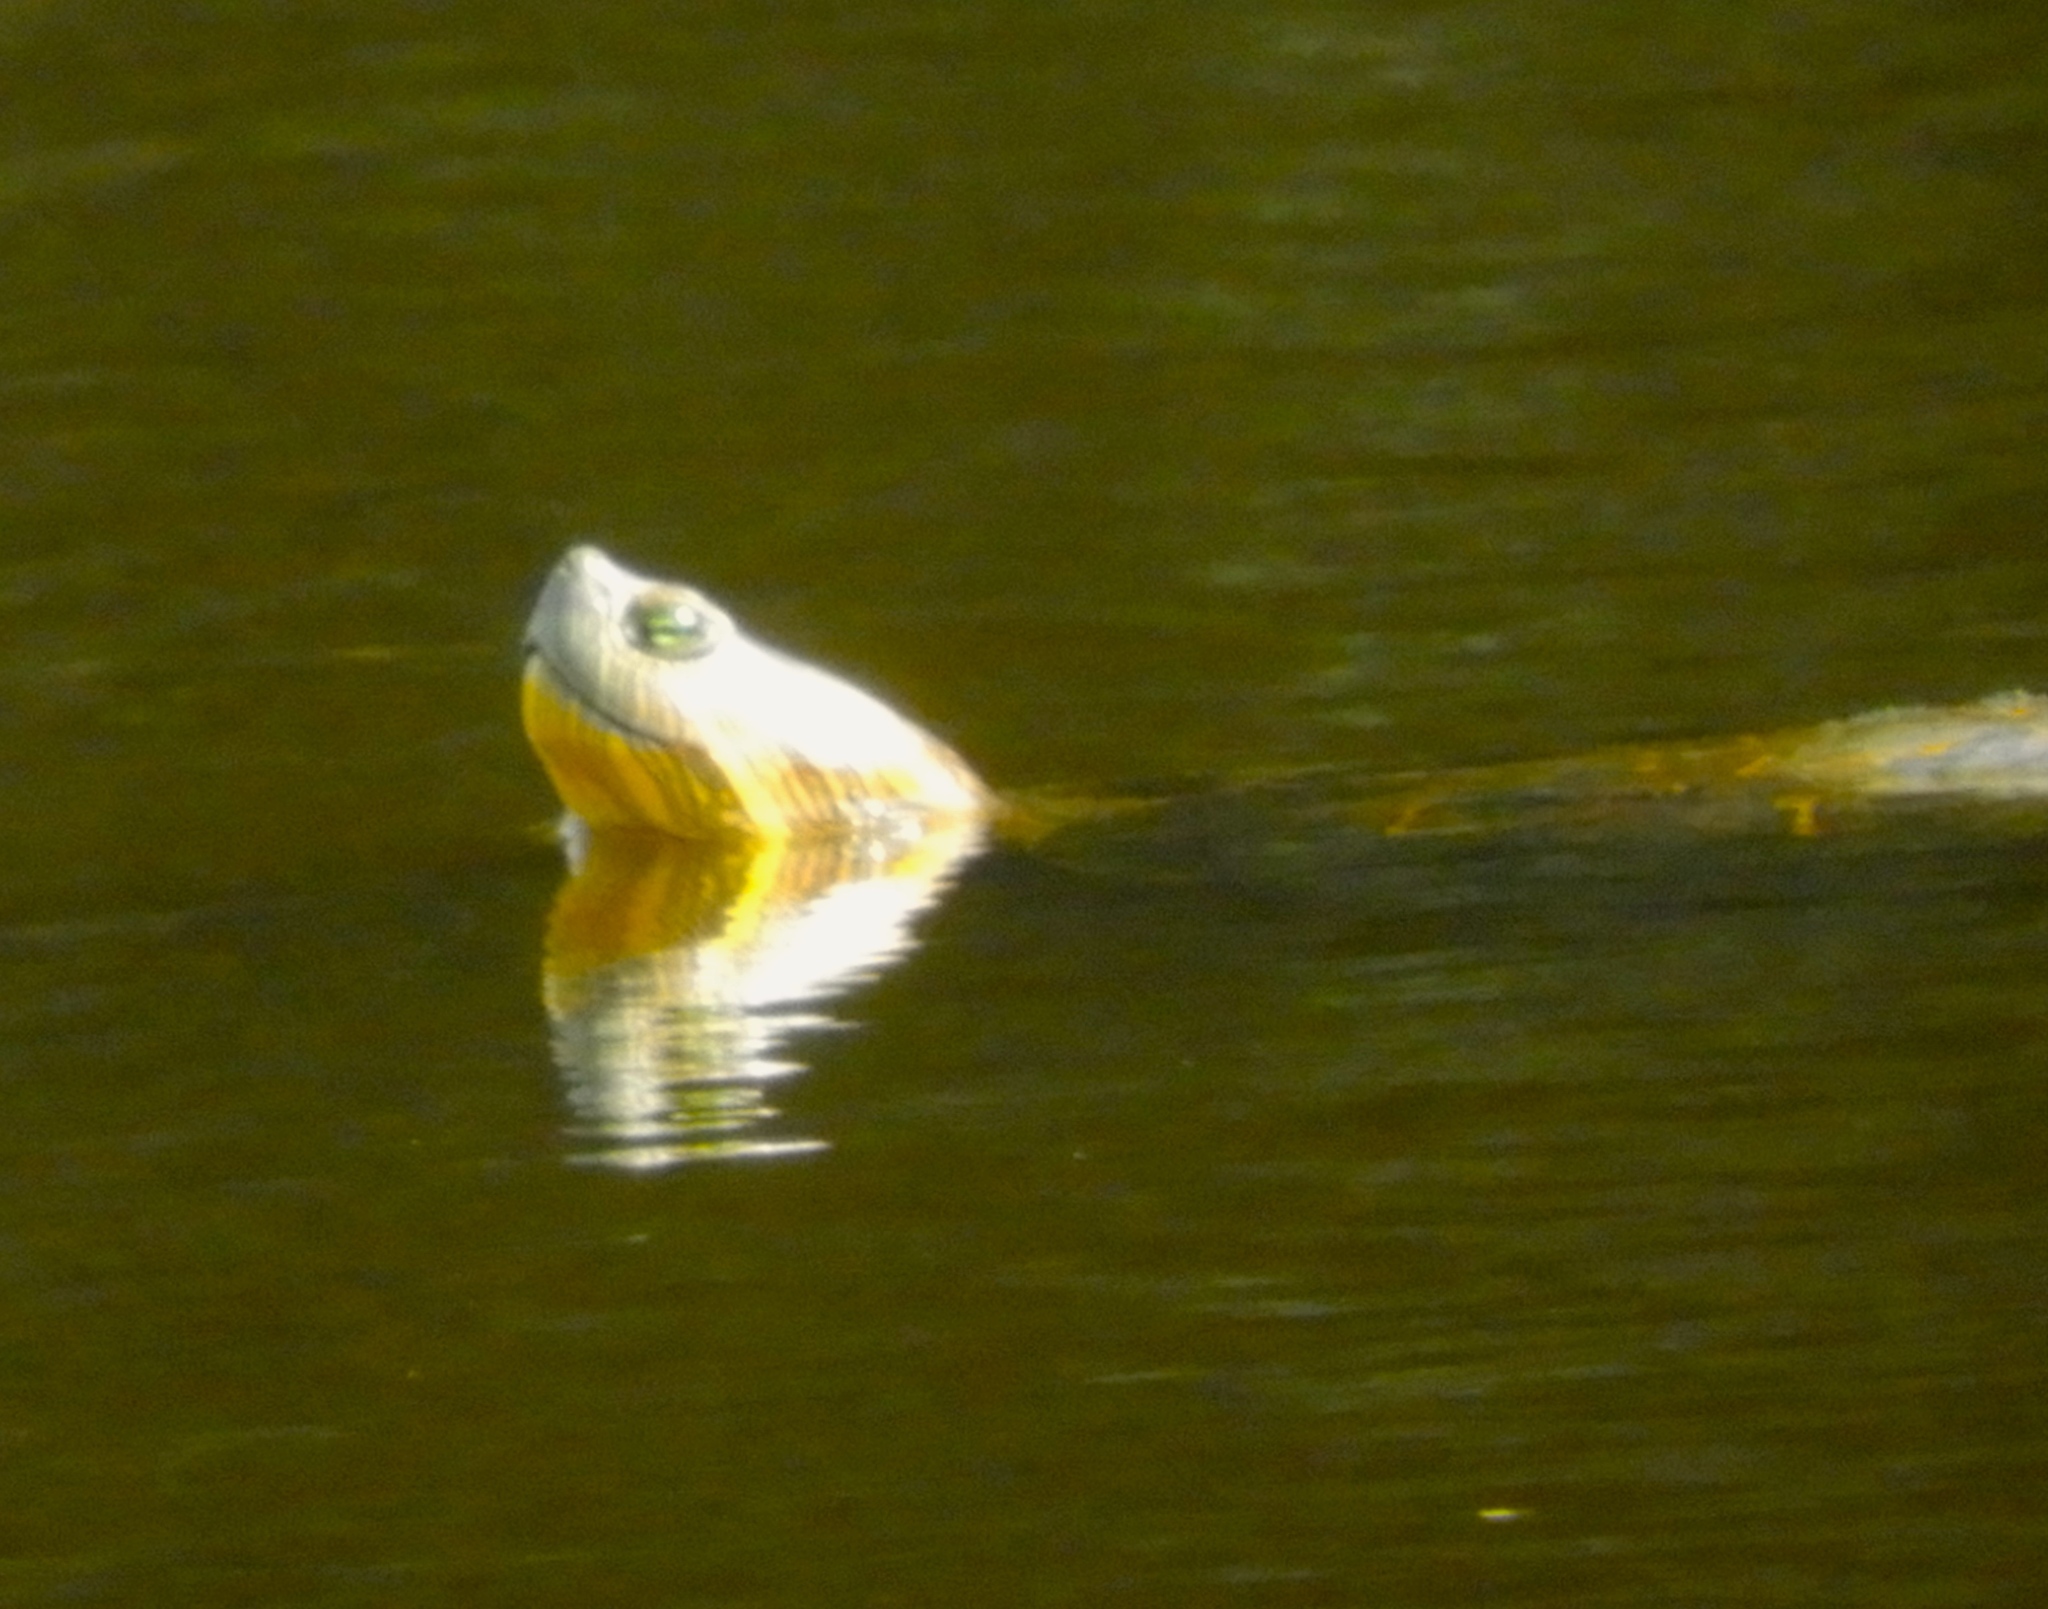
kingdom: Animalia
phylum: Chordata
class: Testudines
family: Emydidae
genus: Trachemys
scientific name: Trachemys ornata
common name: Ornate slider
